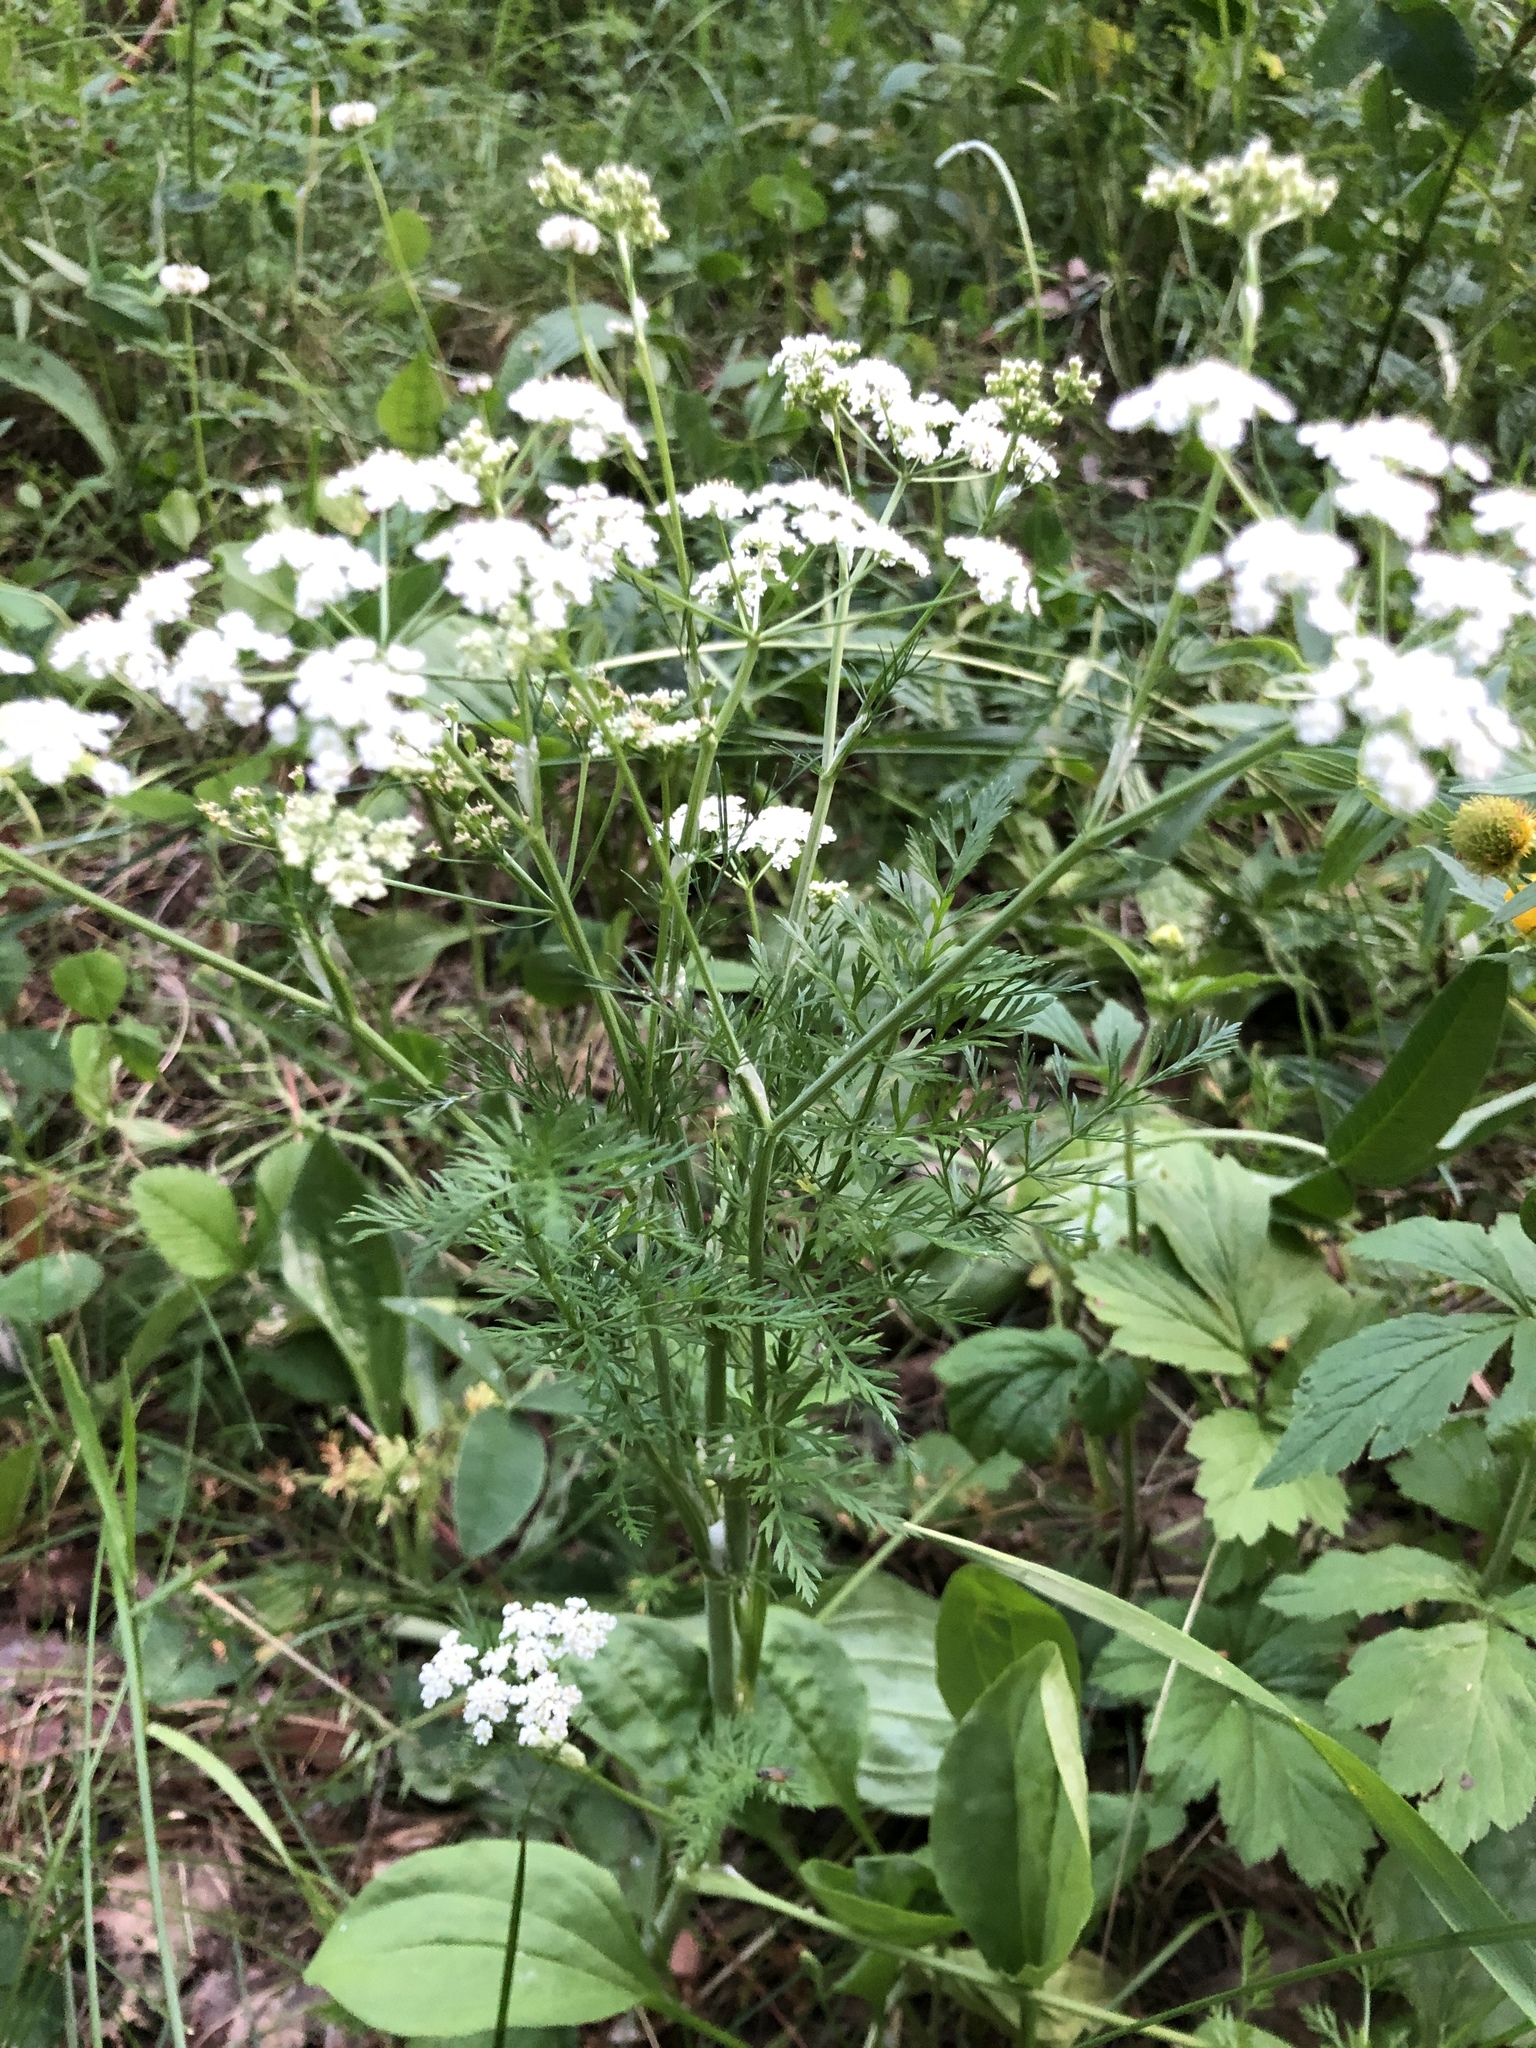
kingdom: Plantae
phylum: Tracheophyta
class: Magnoliopsida
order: Apiales
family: Apiaceae
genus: Carum
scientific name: Carum carvi
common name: Caraway
